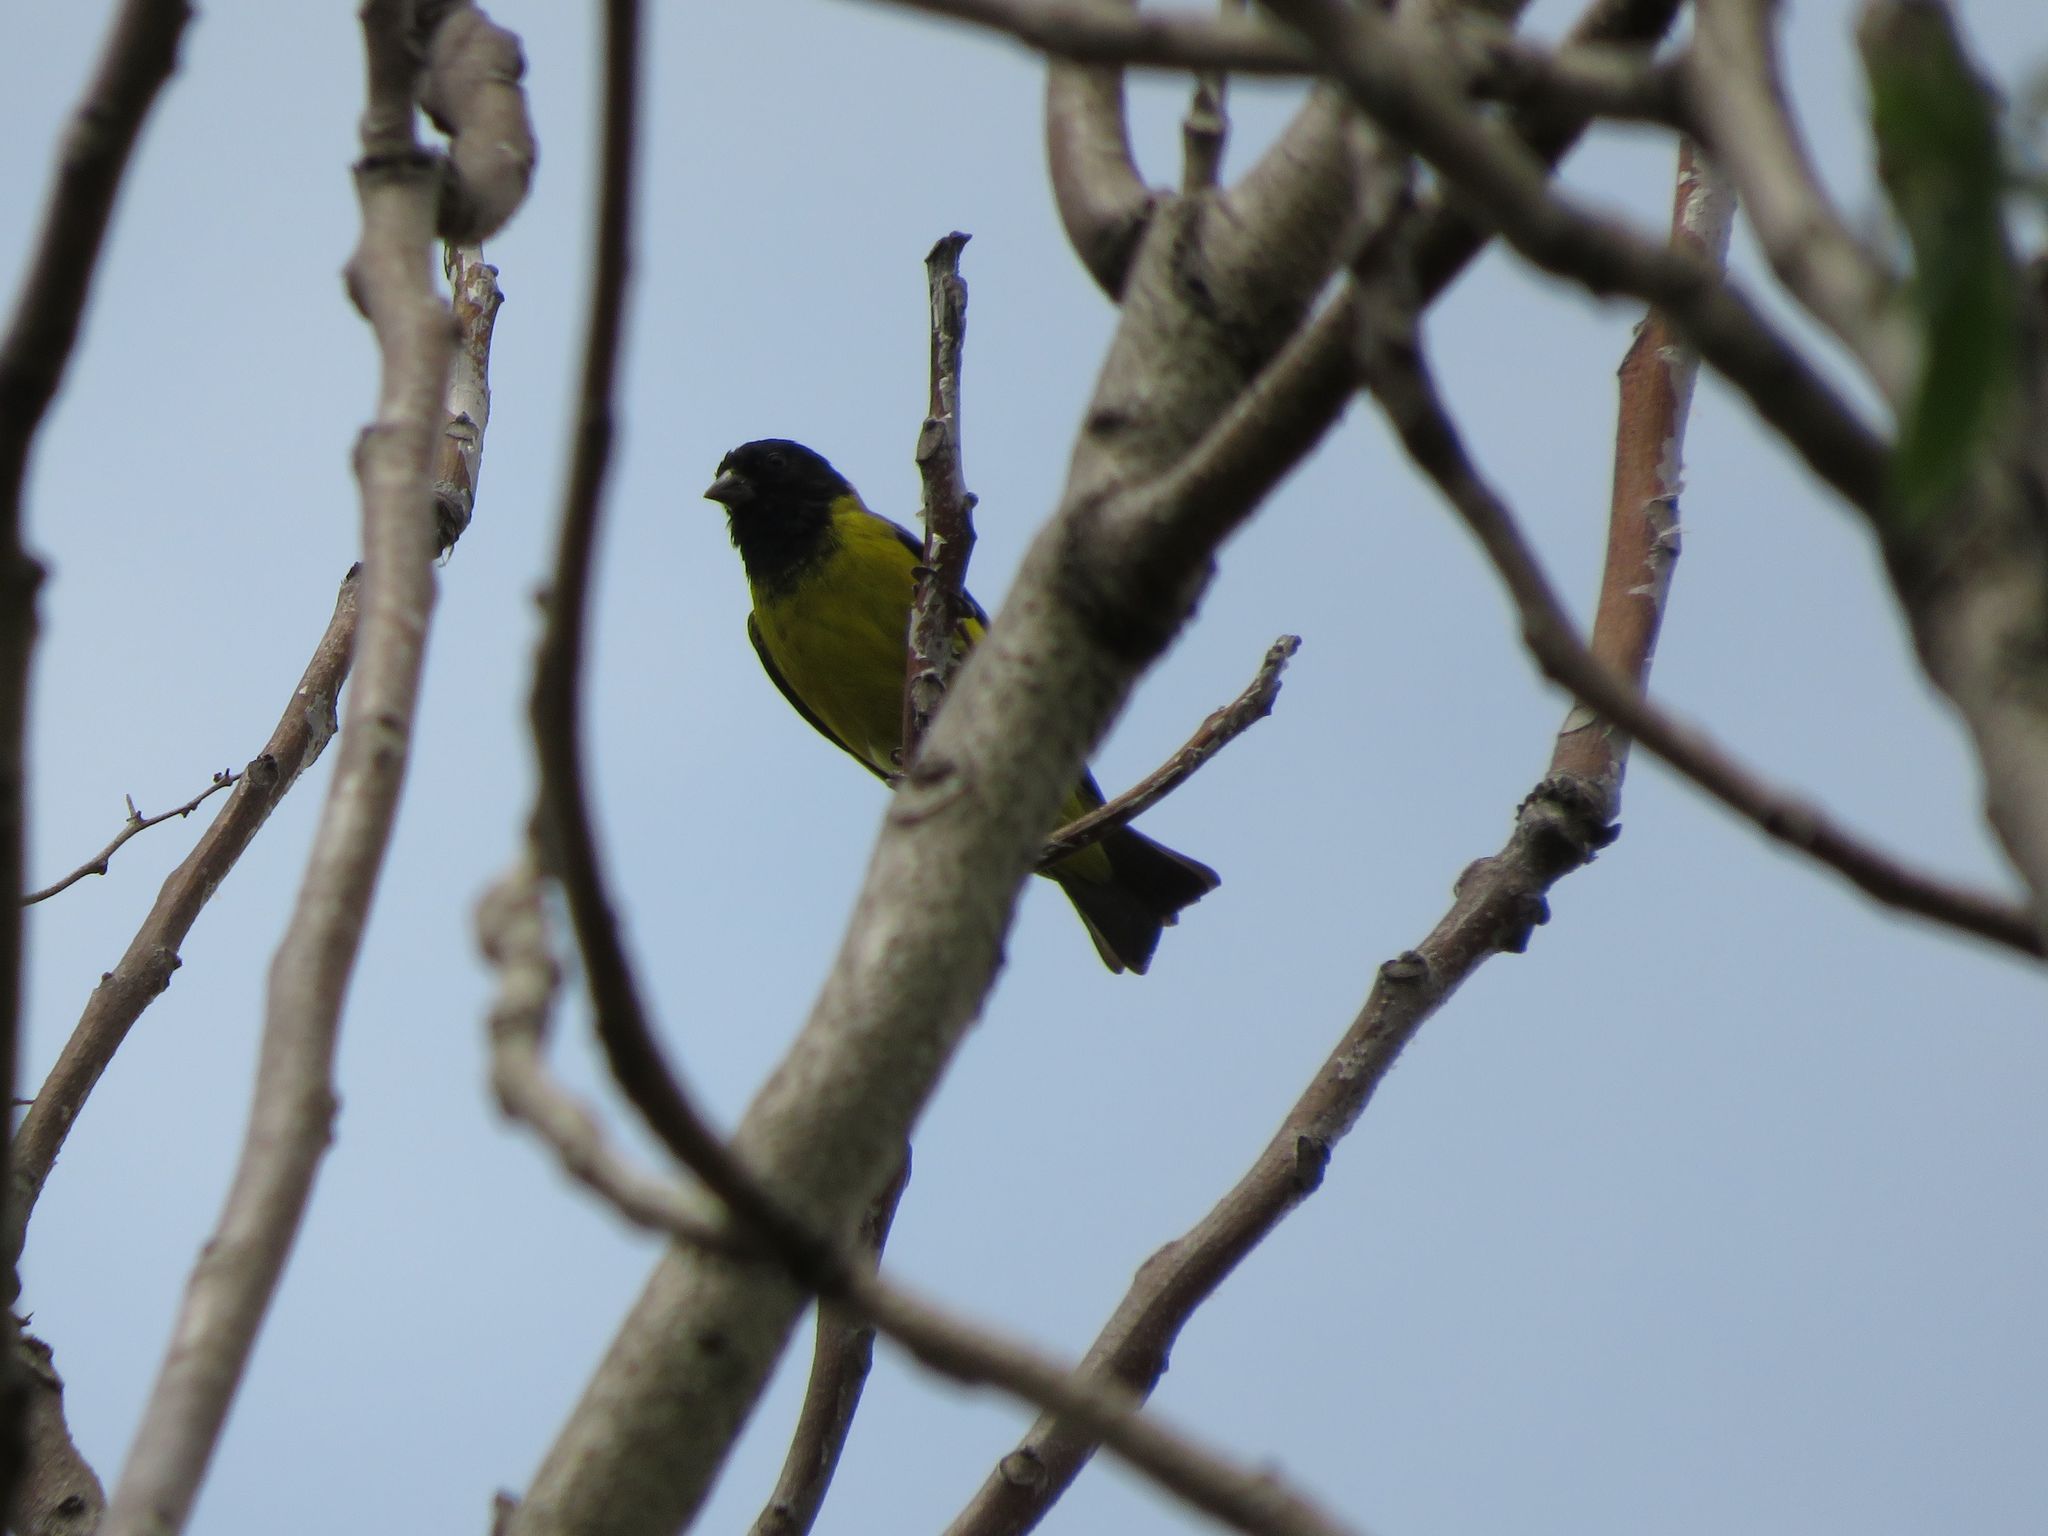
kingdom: Animalia
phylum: Chordata
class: Aves
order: Passeriformes
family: Fringillidae
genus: Spinus
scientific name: Spinus magellanicus
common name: Hooded siskin
